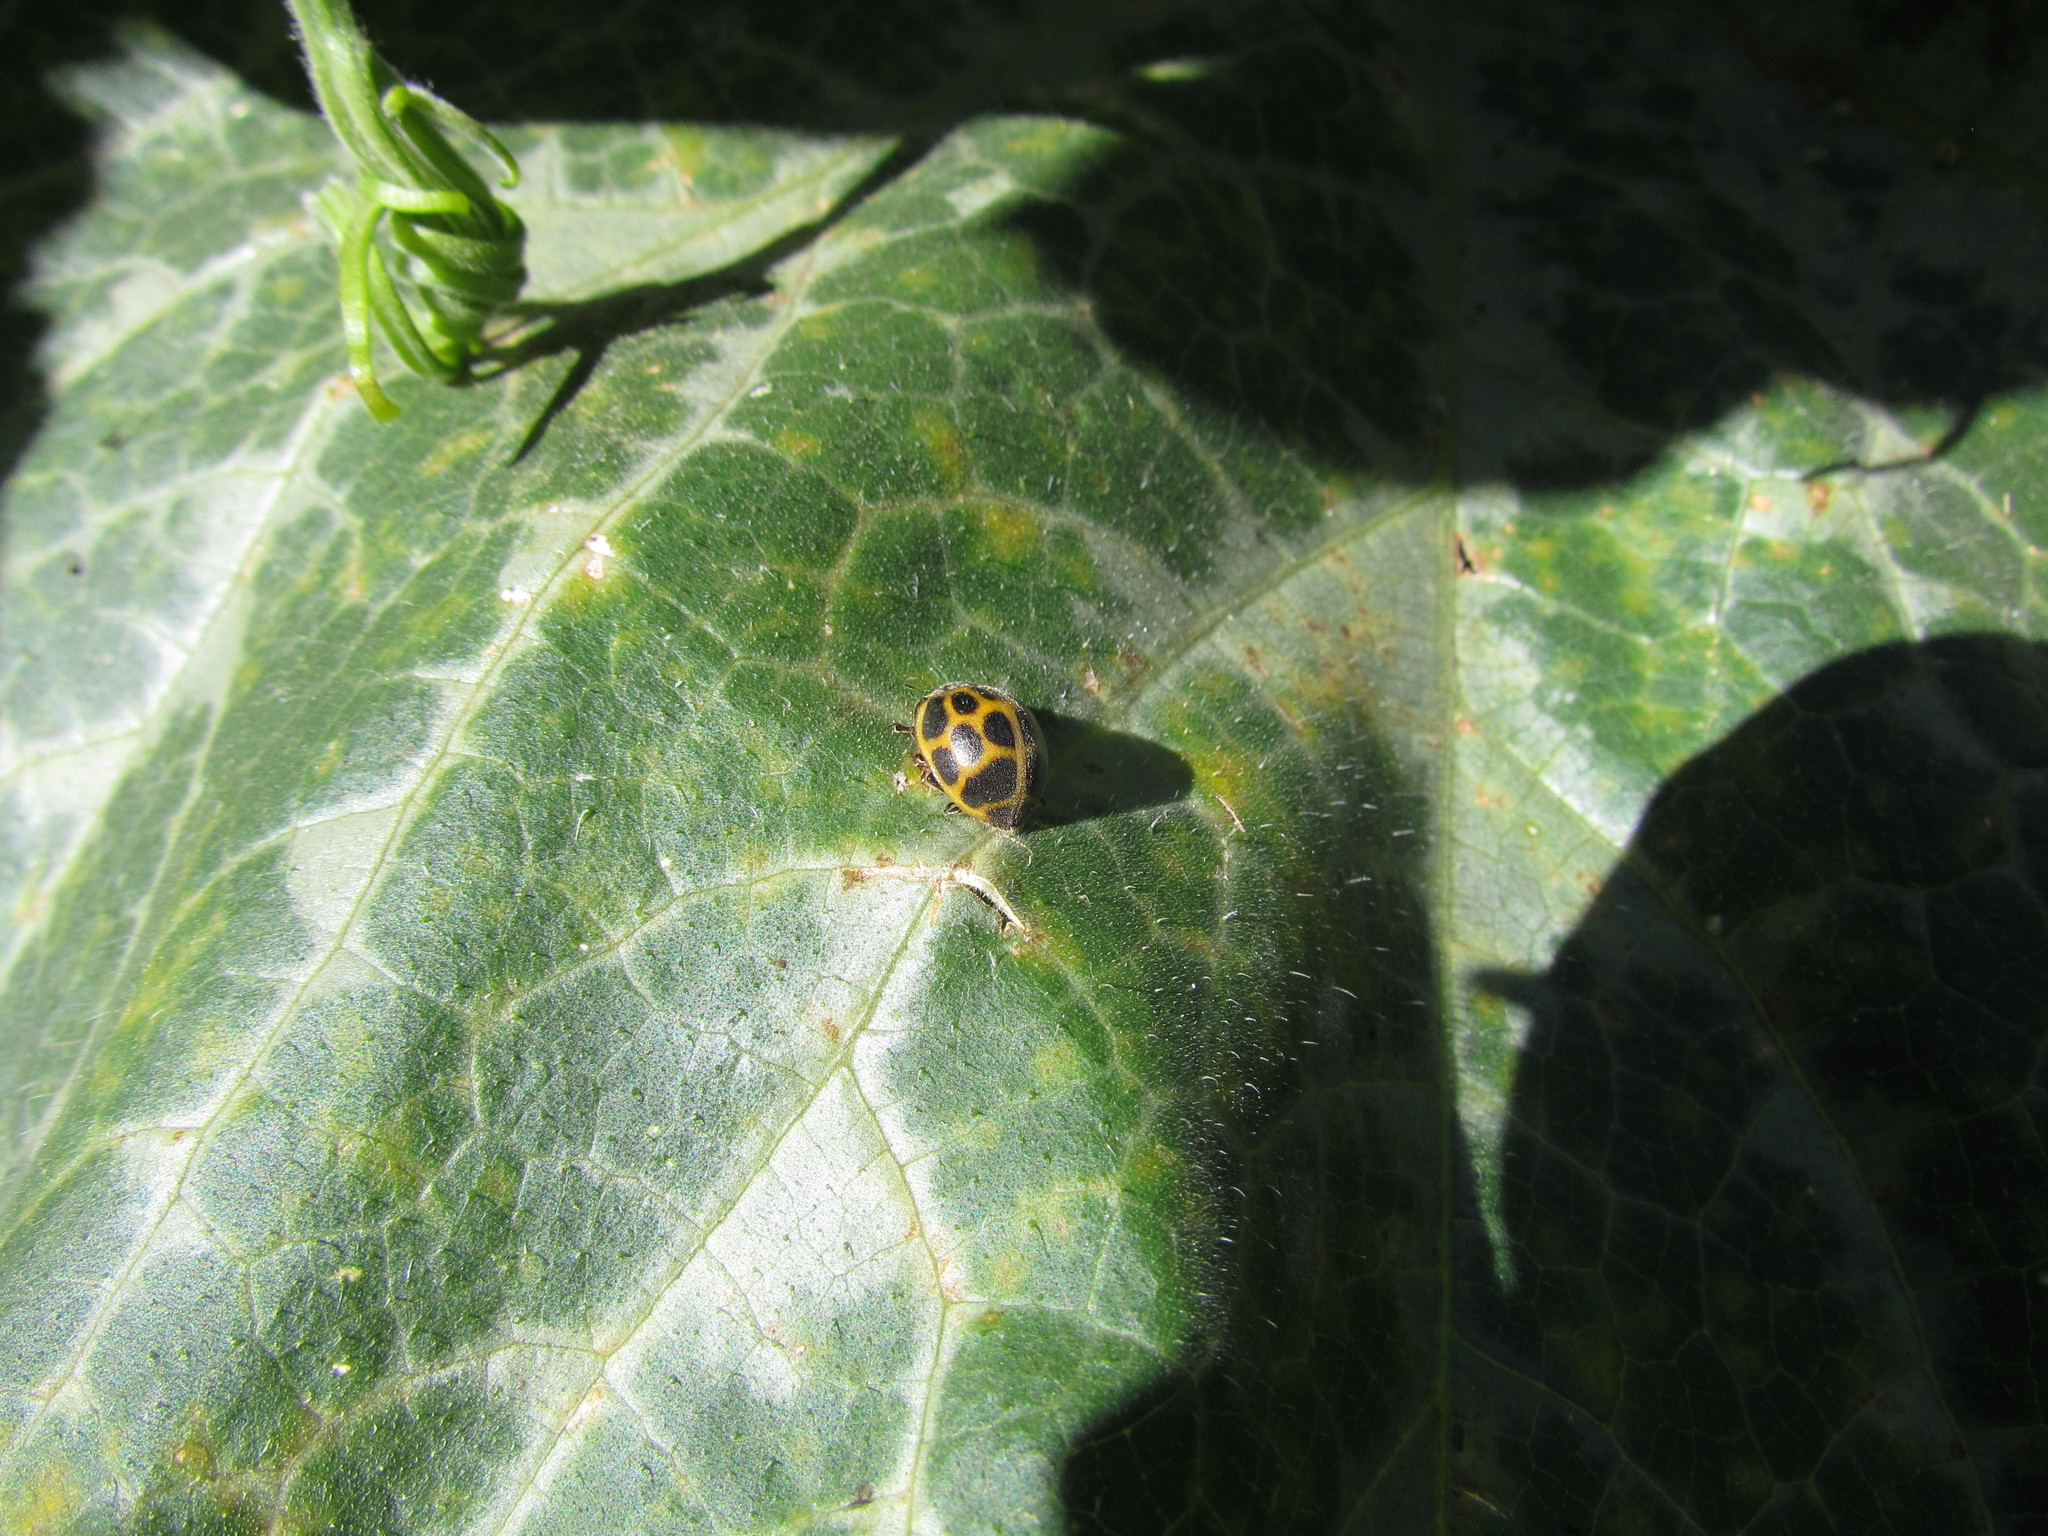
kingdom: Animalia
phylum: Arthropoda
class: Insecta
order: Coleoptera
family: Coccinellidae
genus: Epilachna
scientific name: Epilachna
